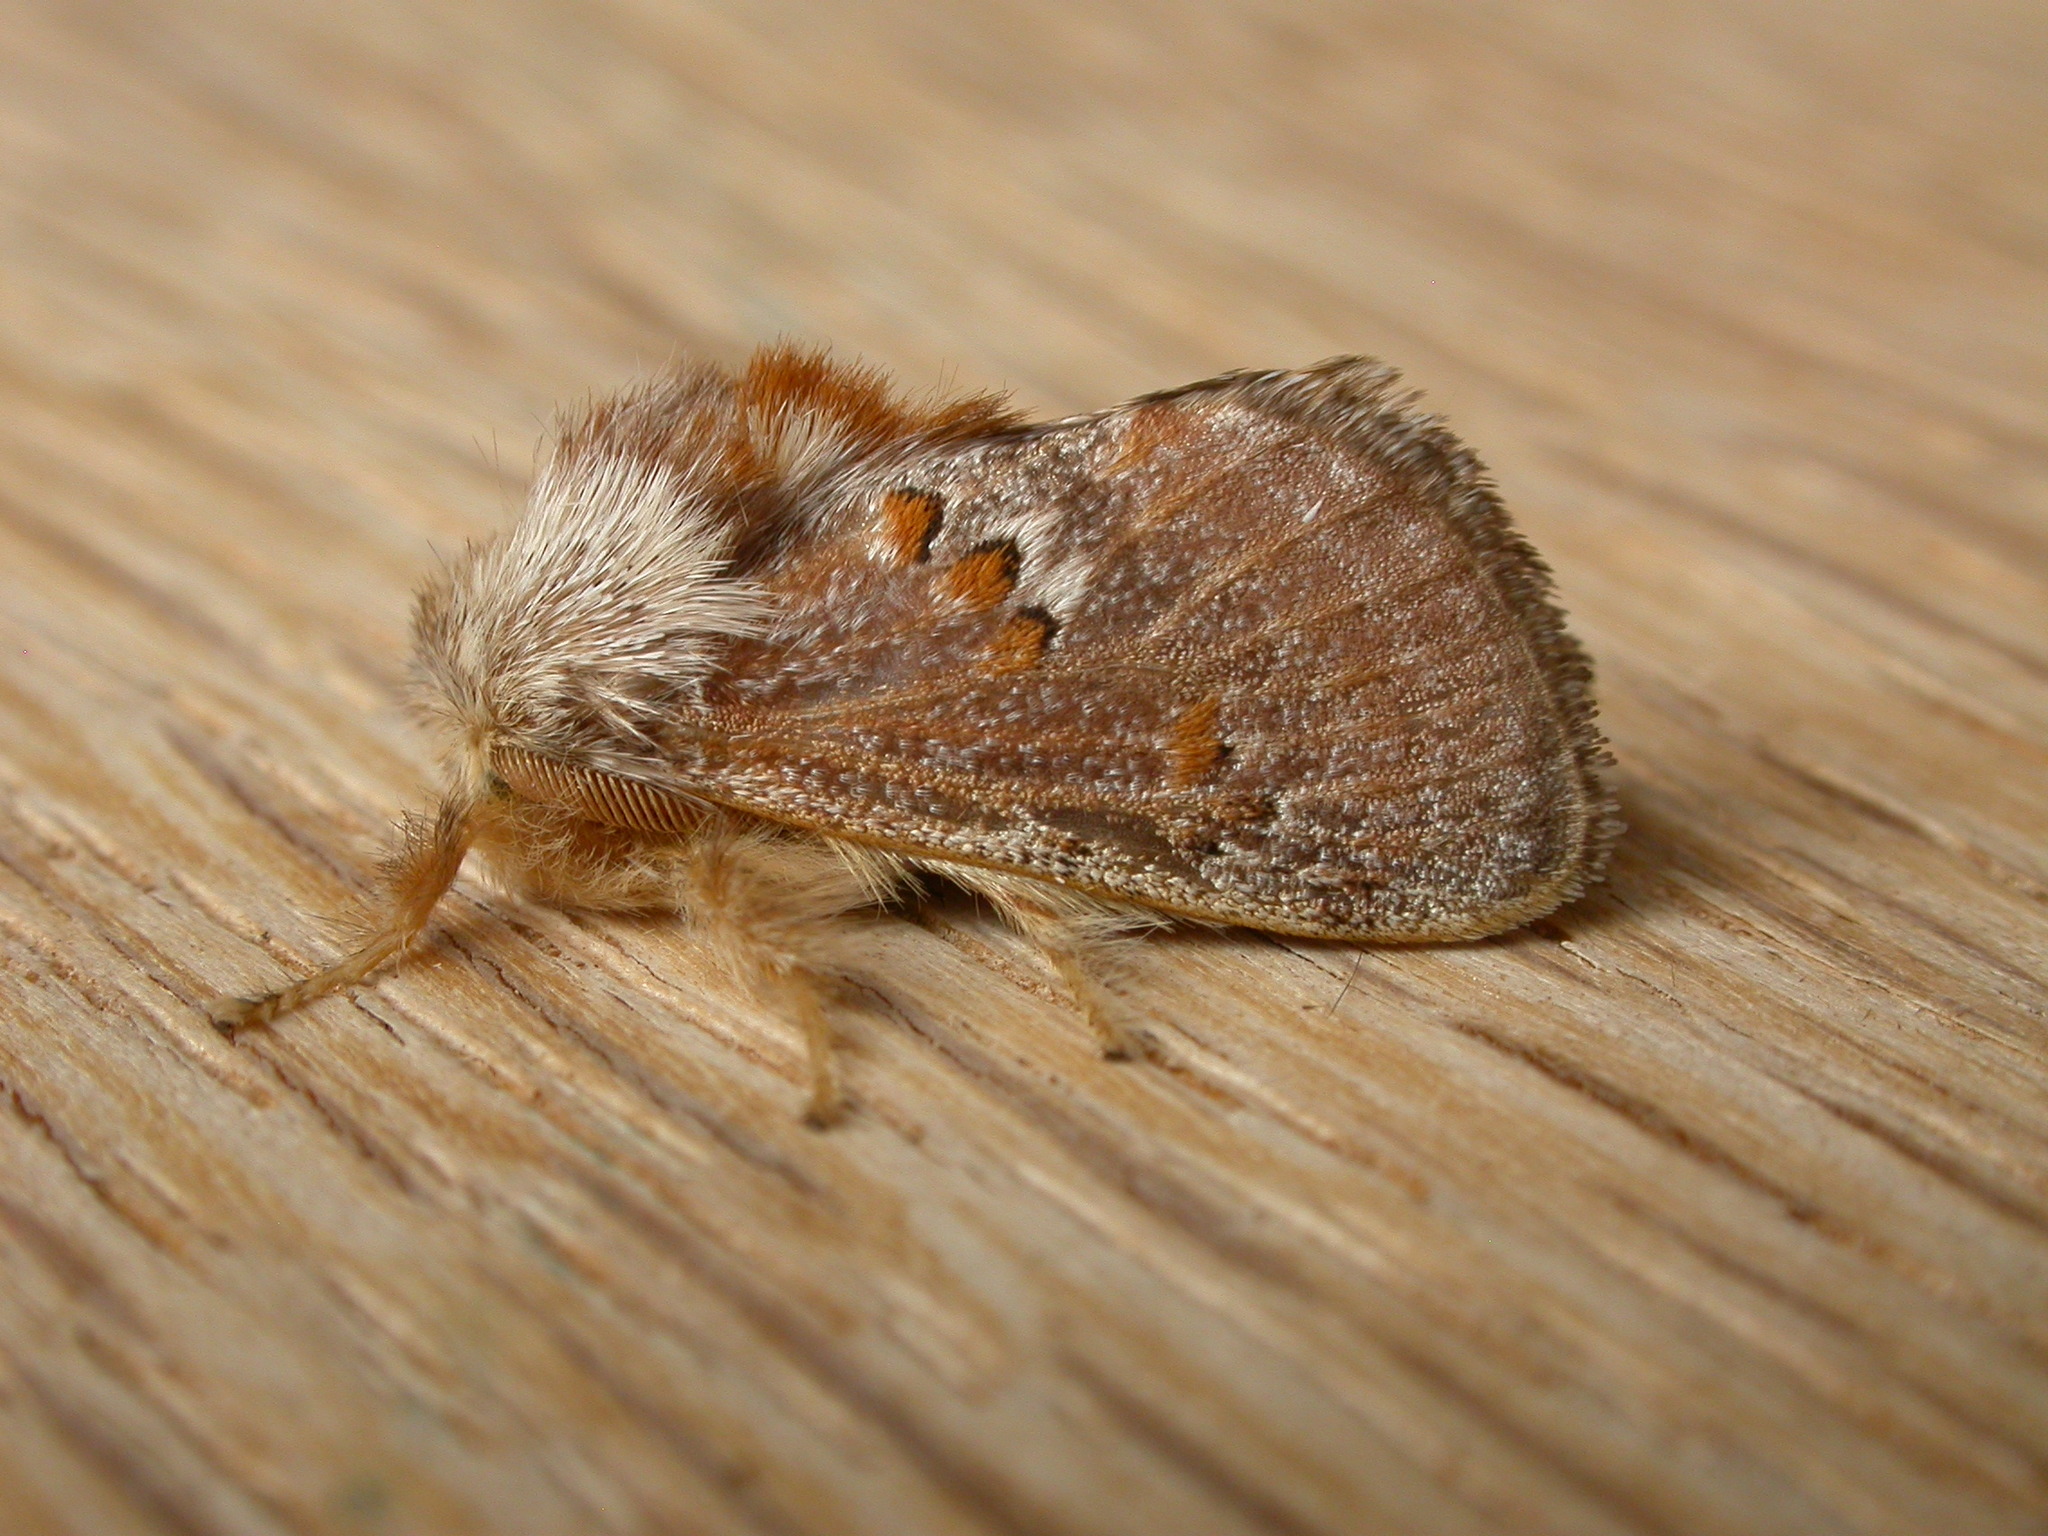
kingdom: Animalia
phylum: Arthropoda
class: Insecta
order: Lepidoptera
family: Limacodidae
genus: Pseudanapaea
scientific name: Pseudanapaea transvestita
